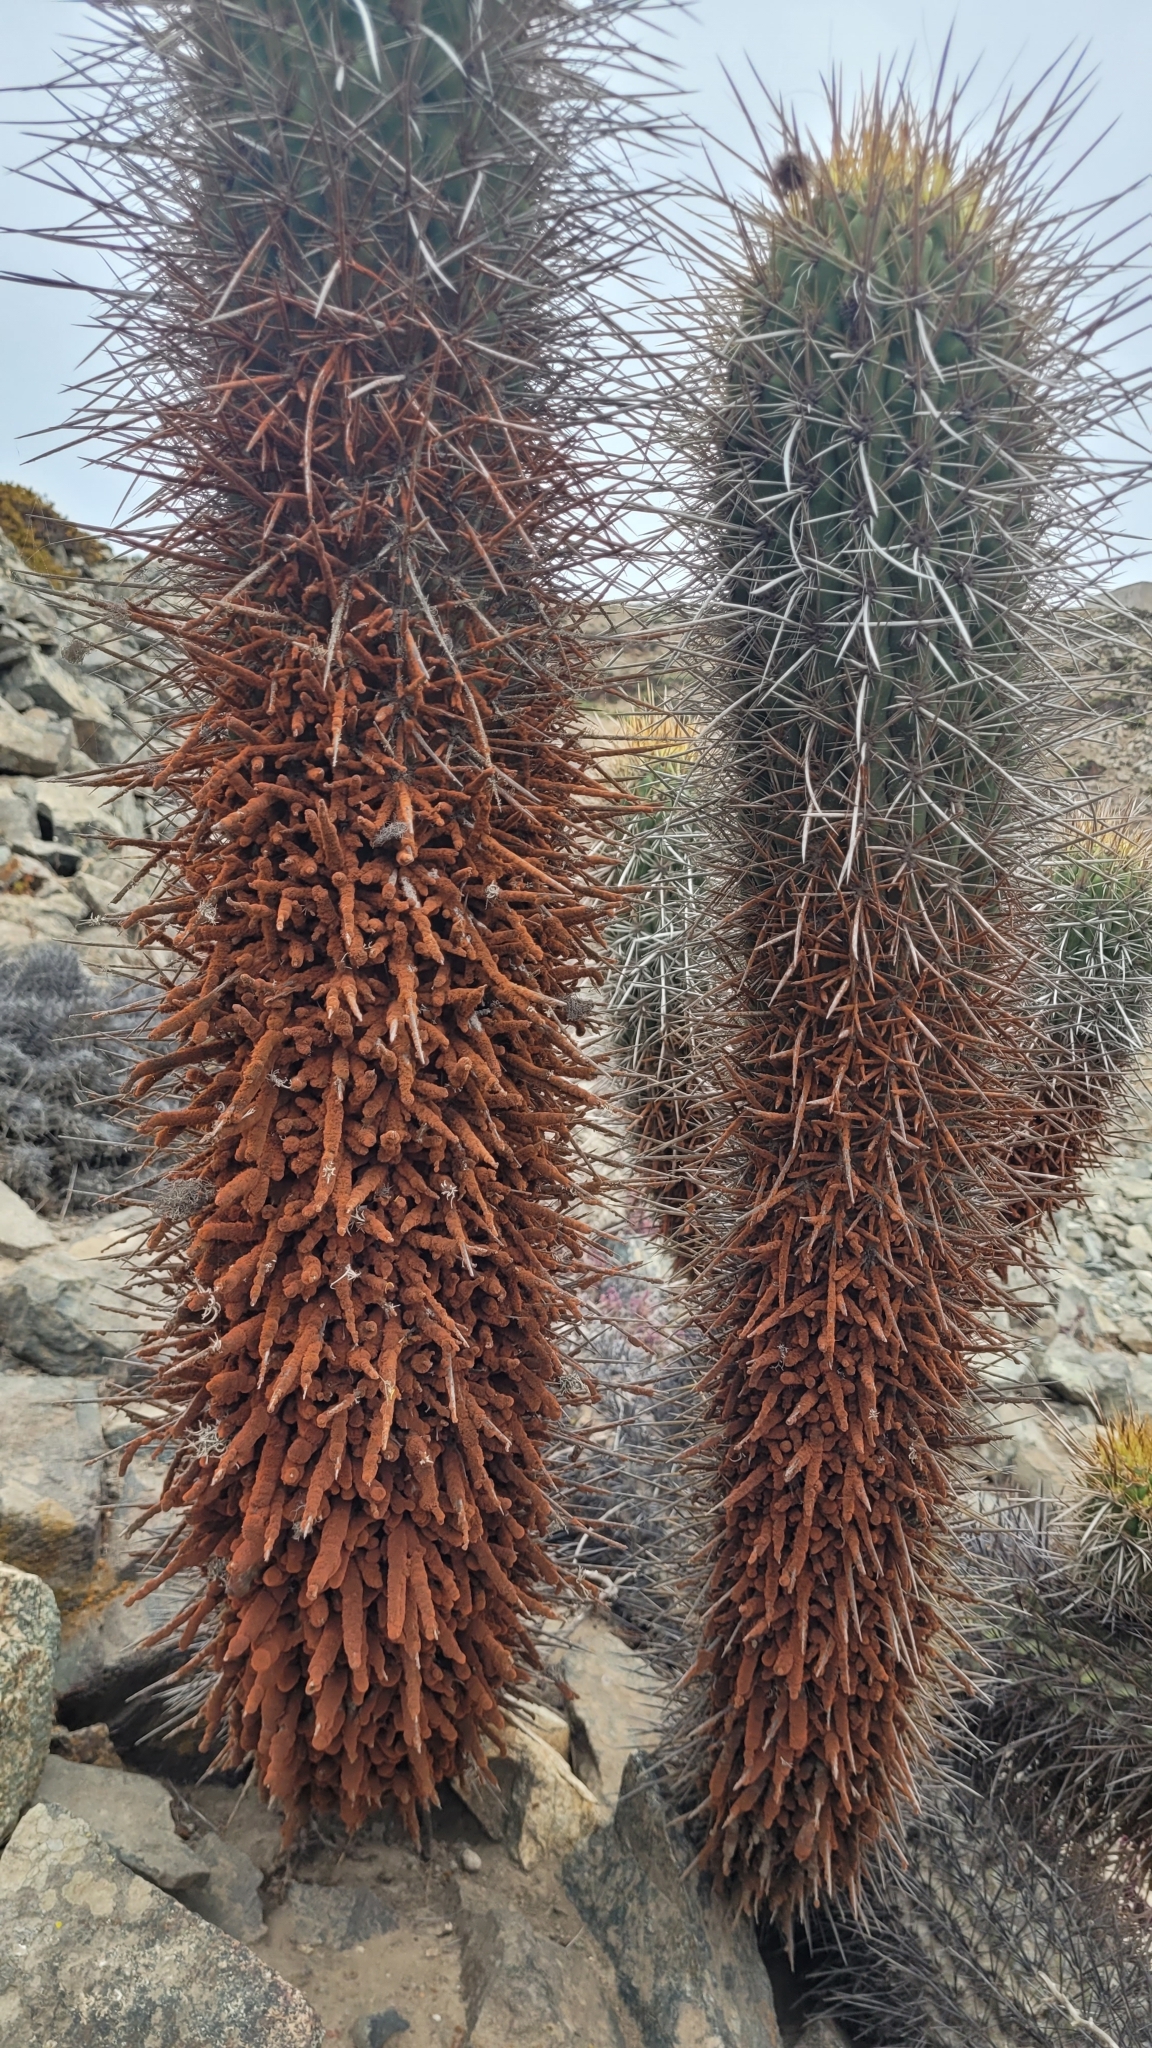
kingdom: Plantae
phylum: Tracheophyta
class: Magnoliopsida
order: Caryophyllales
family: Cactaceae
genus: Leucostele
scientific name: Leucostele chiloensis
